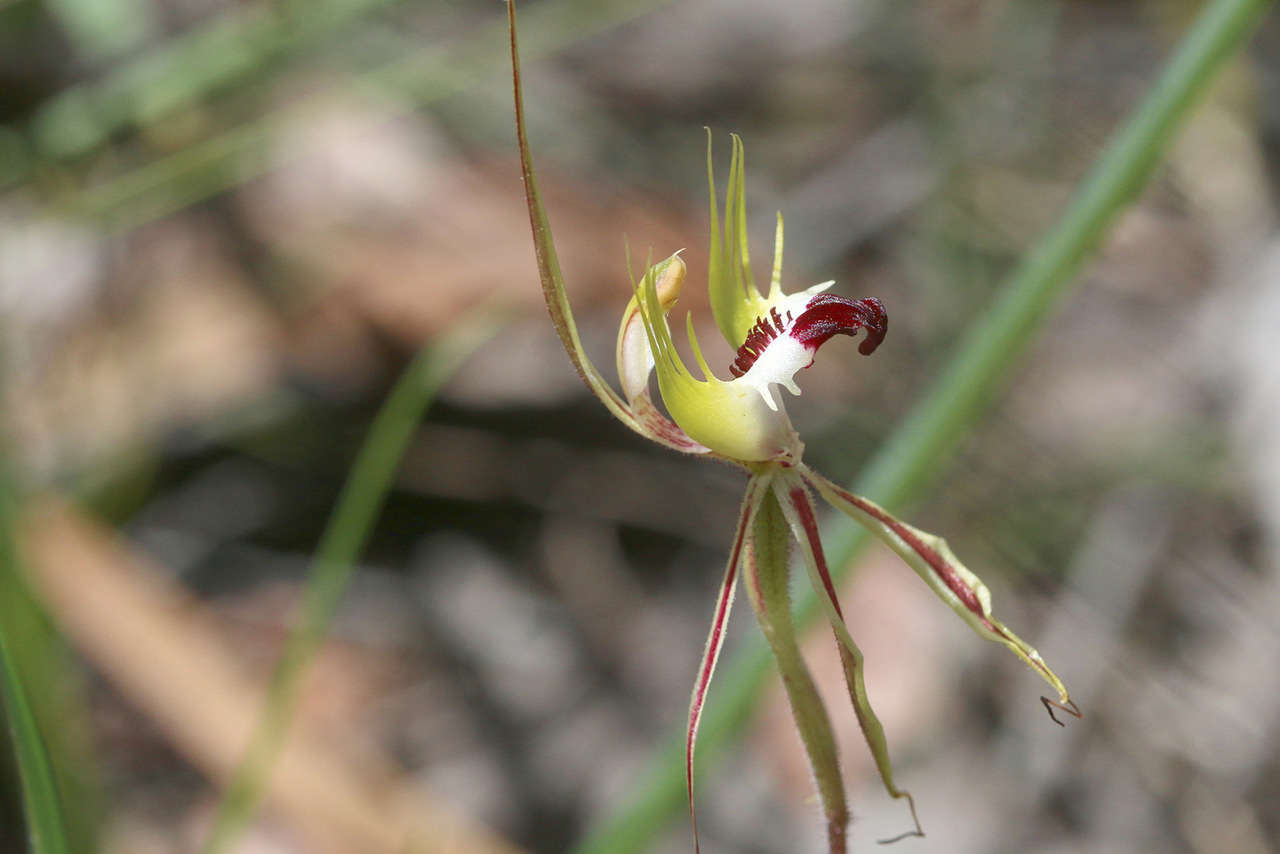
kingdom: Plantae
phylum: Tracheophyta
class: Liliopsida
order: Asparagales
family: Orchidaceae
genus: Caladenia
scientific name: Caladenia tentaculata
